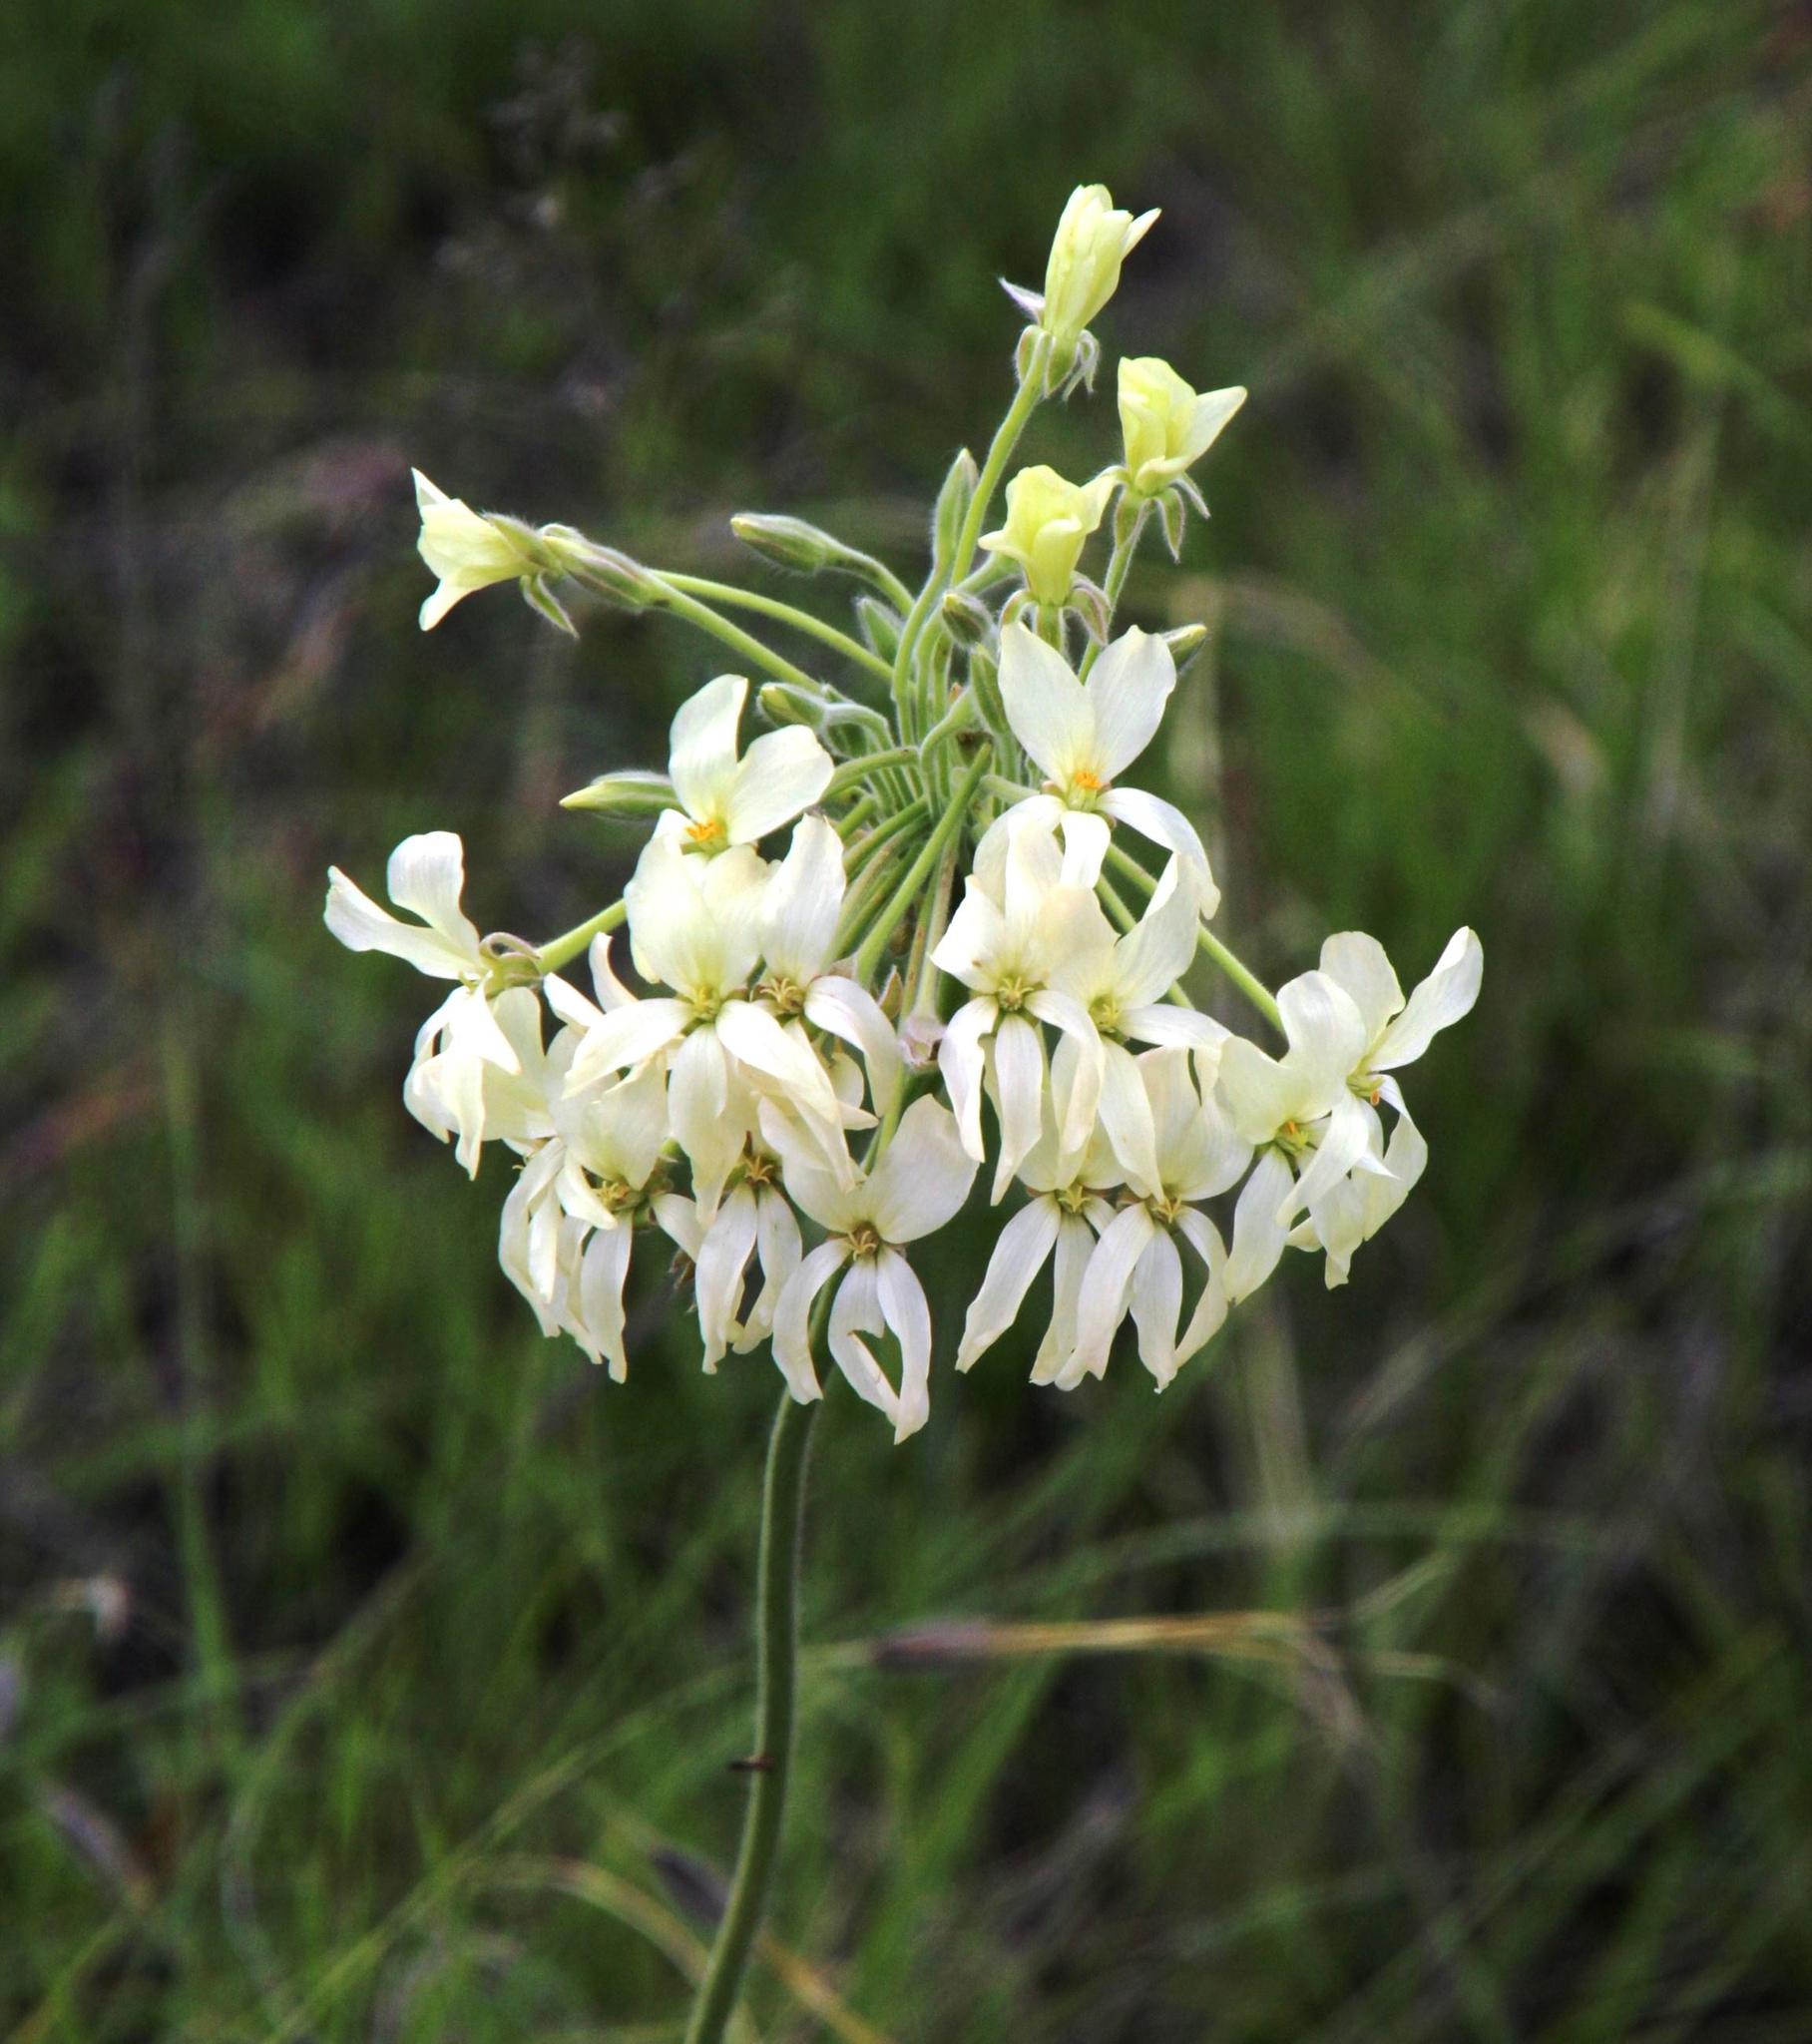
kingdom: Plantae
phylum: Tracheophyta
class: Magnoliopsida
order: Geraniales
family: Geraniaceae
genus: Pelargonium
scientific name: Pelargonium luridum
